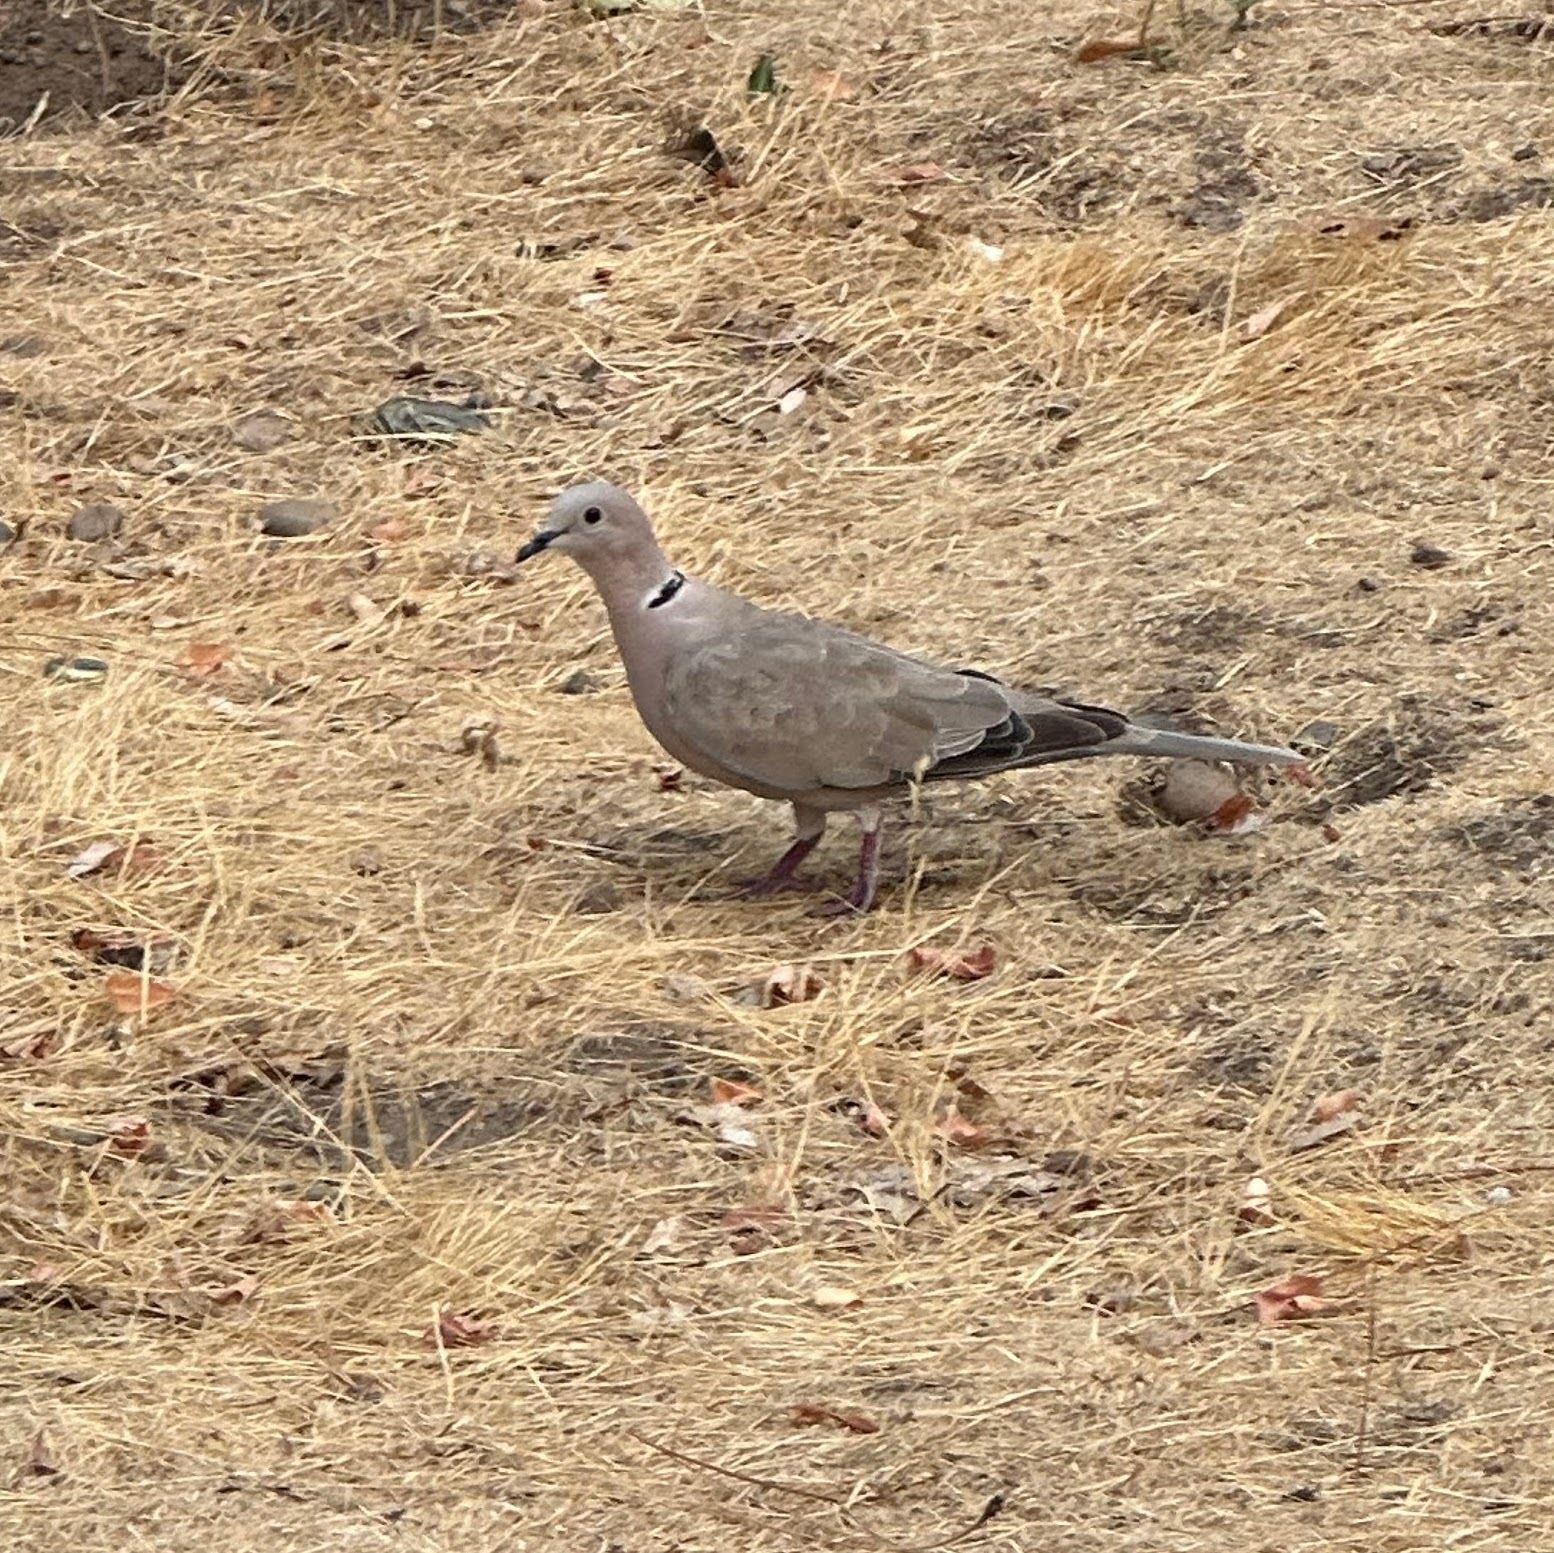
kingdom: Animalia
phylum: Chordata
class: Aves
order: Columbiformes
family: Columbidae
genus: Streptopelia
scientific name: Streptopelia decaocto
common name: Eurasian collared dove
